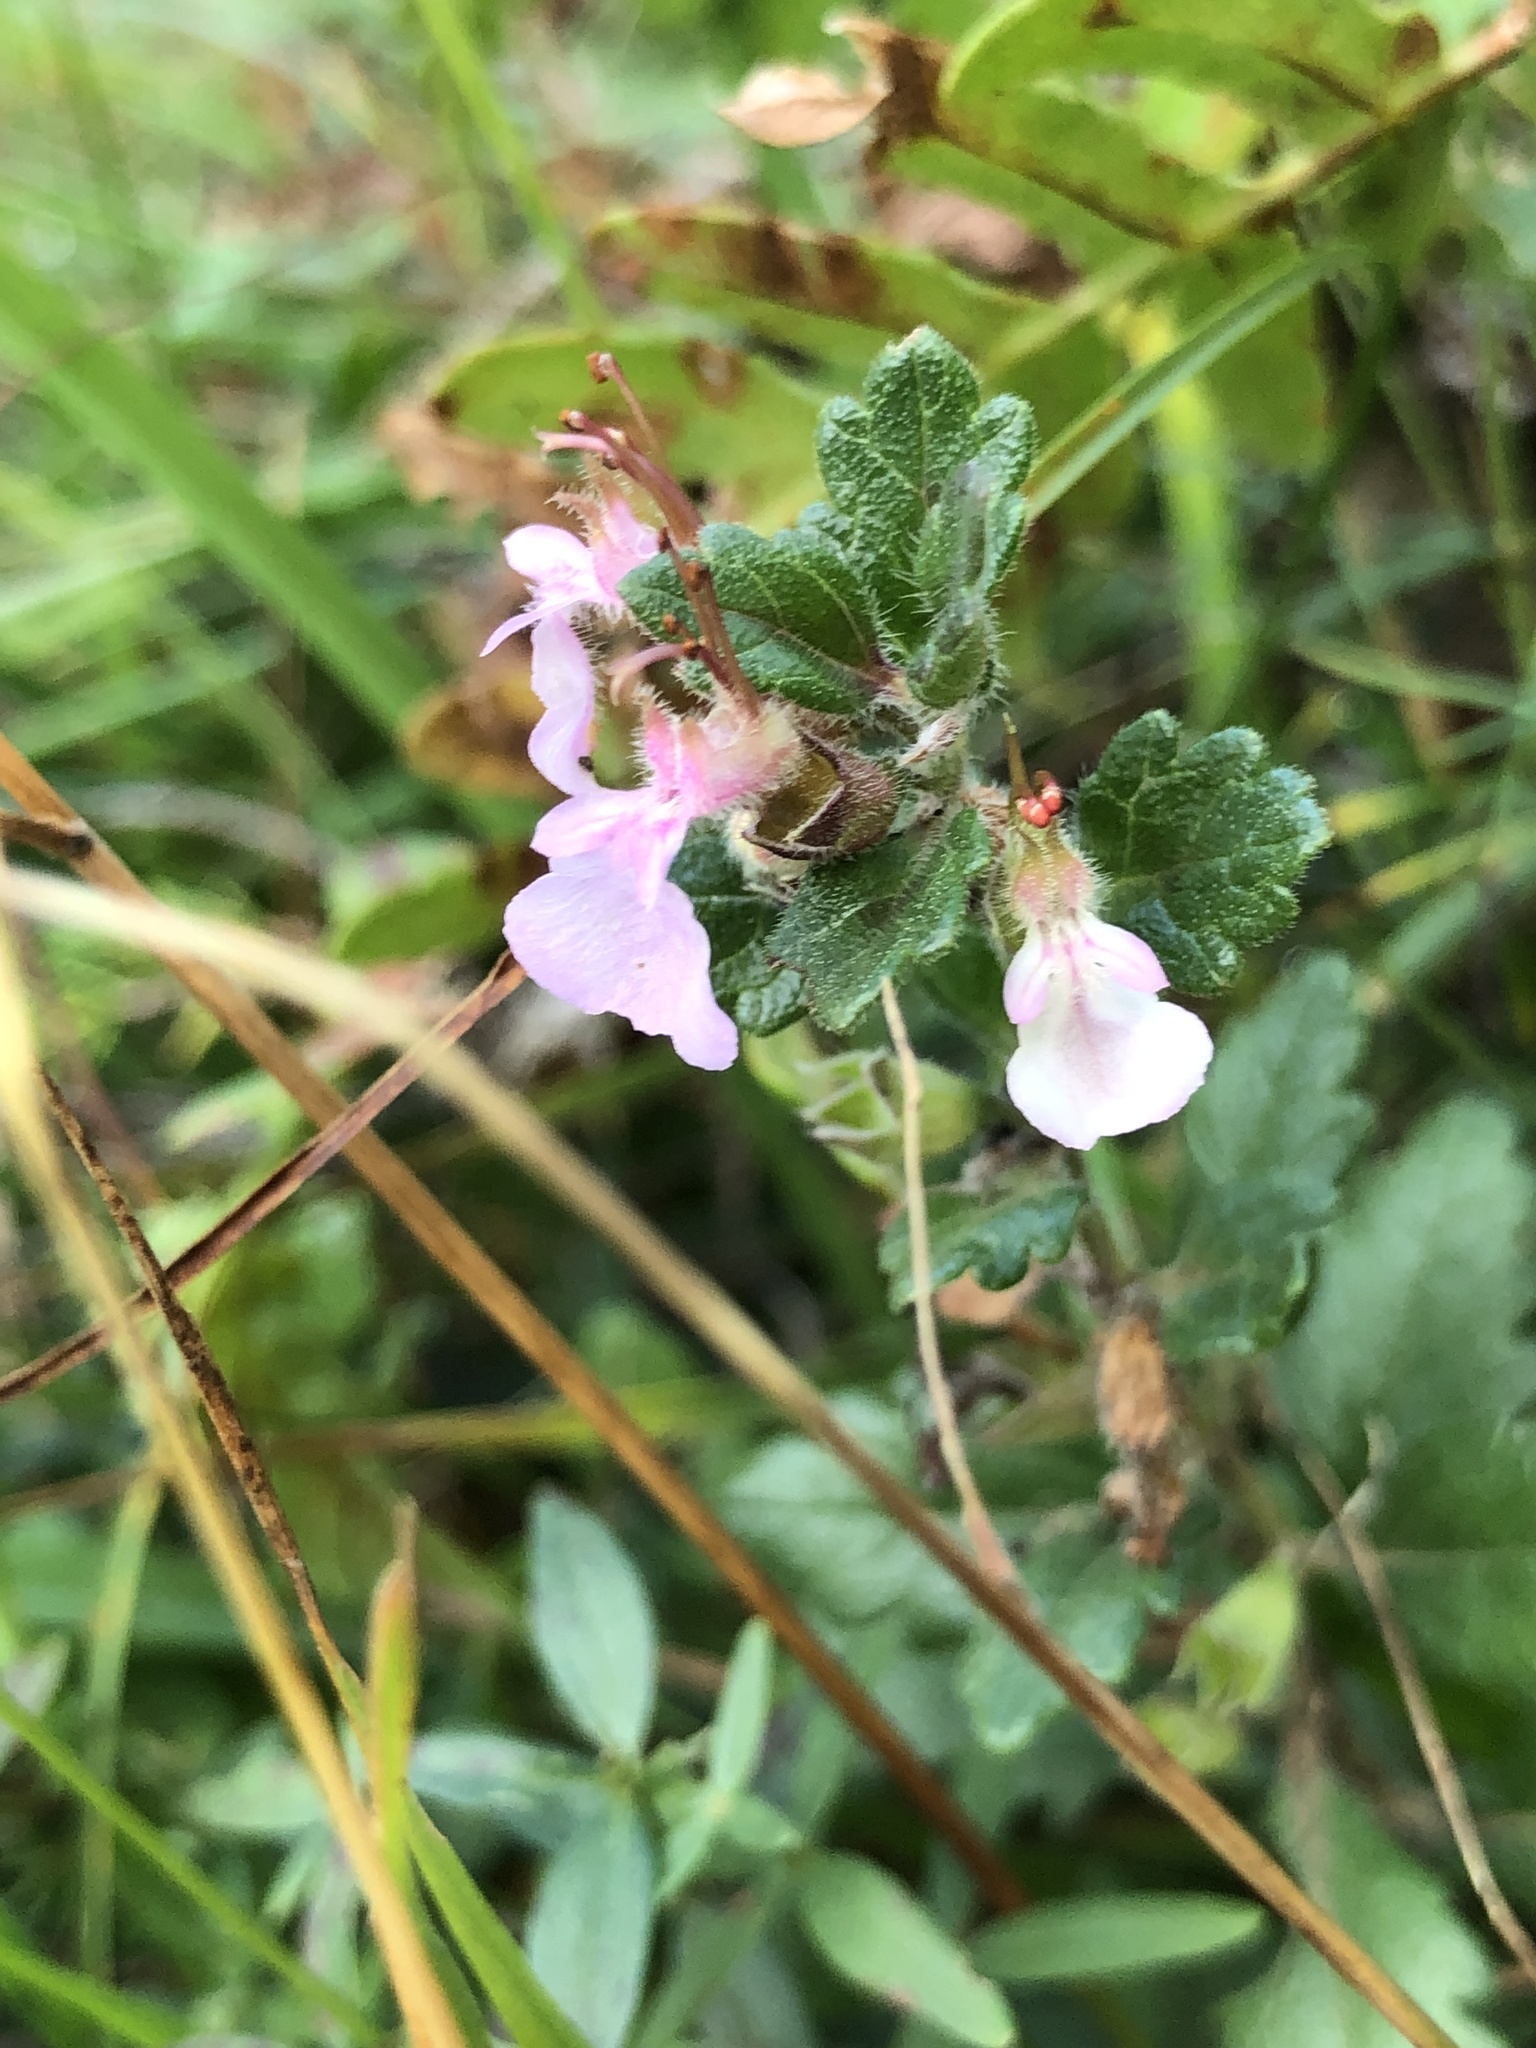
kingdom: Plantae
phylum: Tracheophyta
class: Magnoliopsida
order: Lamiales
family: Lamiaceae
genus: Teucrium
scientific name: Teucrium chamaedrys
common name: Wall germander
